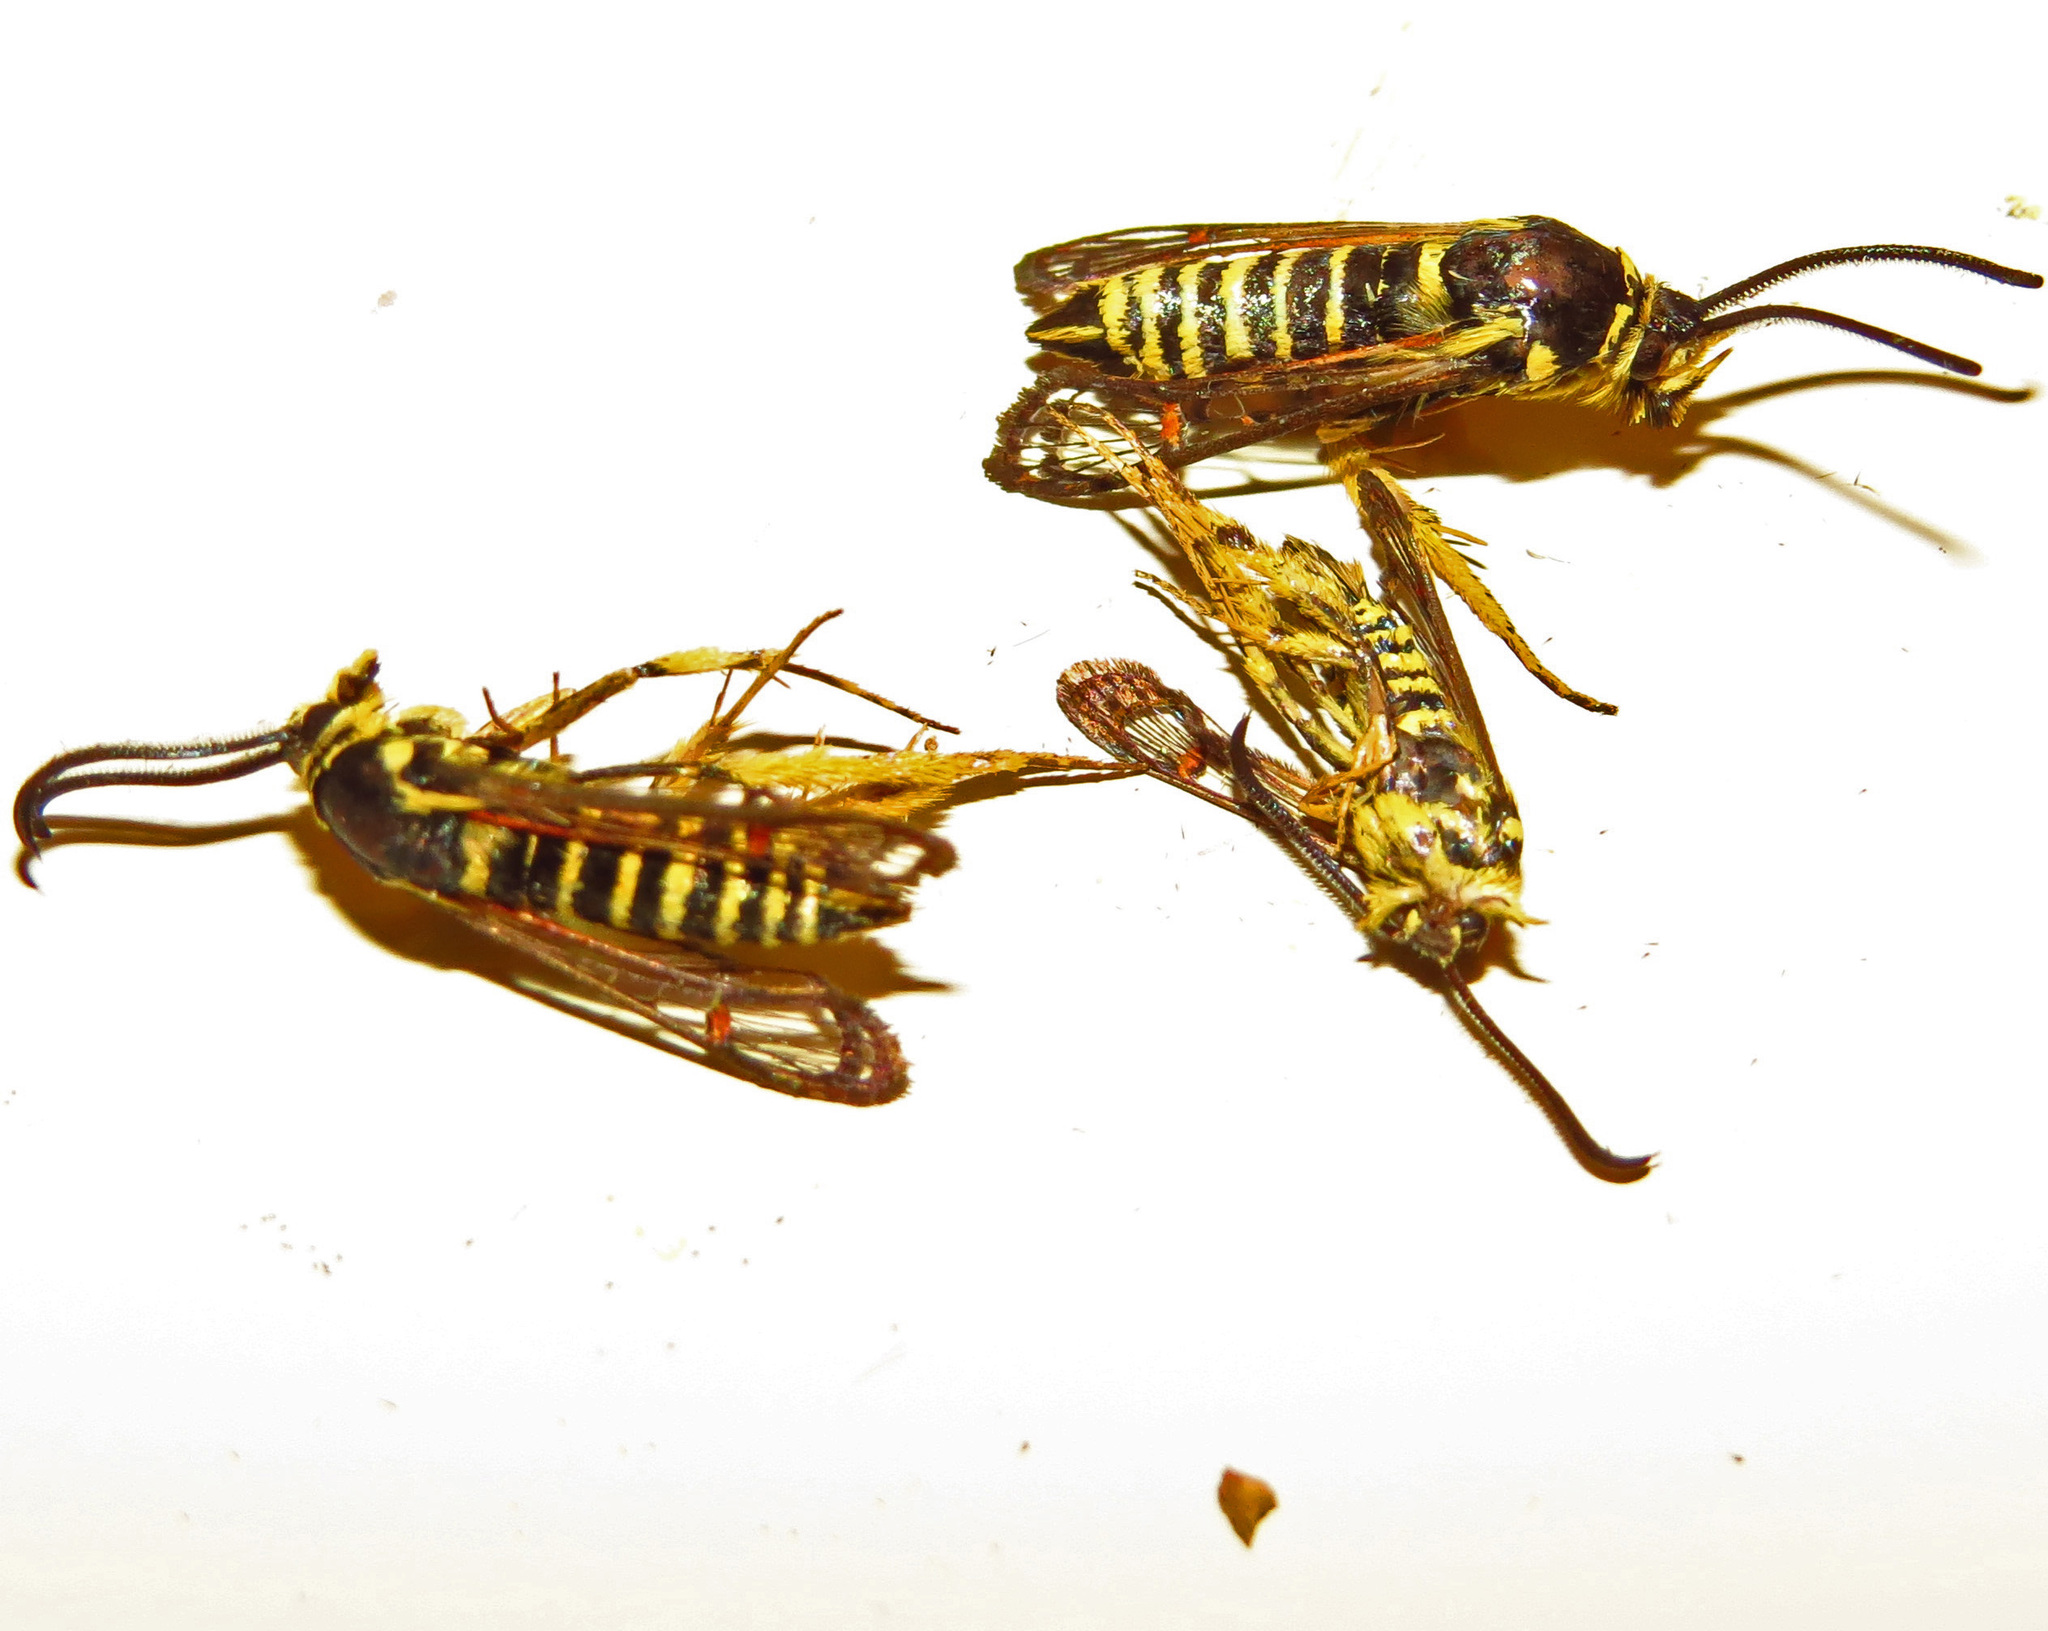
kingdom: Animalia
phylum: Arthropoda
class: Insecta
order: Lepidoptera
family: Sesiidae
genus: Synanthedon
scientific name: Synanthedon rileyana
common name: Riley's clearwing moth
